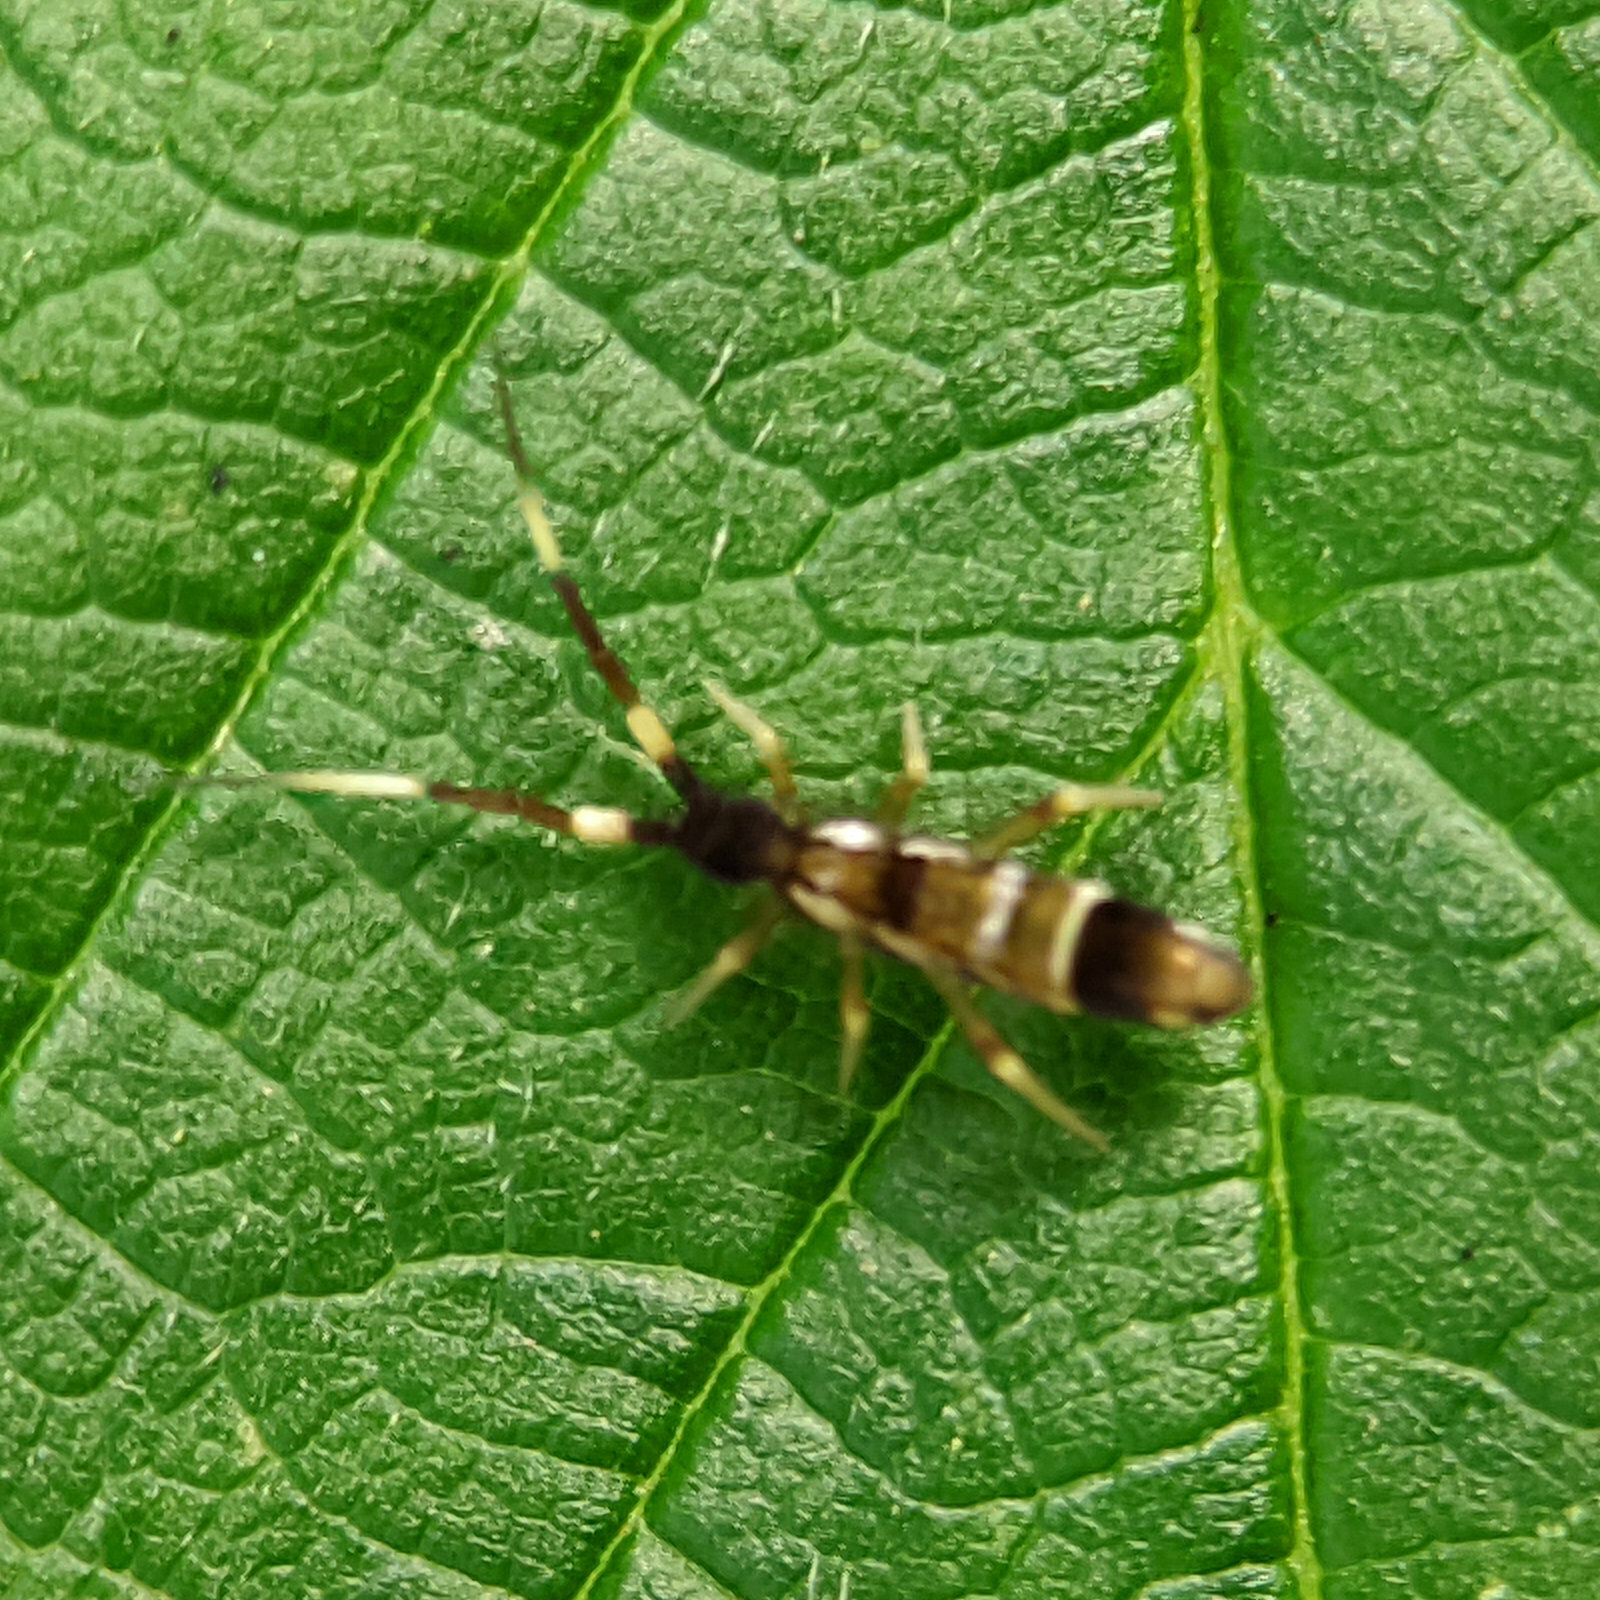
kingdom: Animalia
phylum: Arthropoda
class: Collembola
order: Entomobryomorpha
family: Entomobryidae
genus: Entomobrya
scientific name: Entomobrya nivalis
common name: Cosmopolitan springtail
